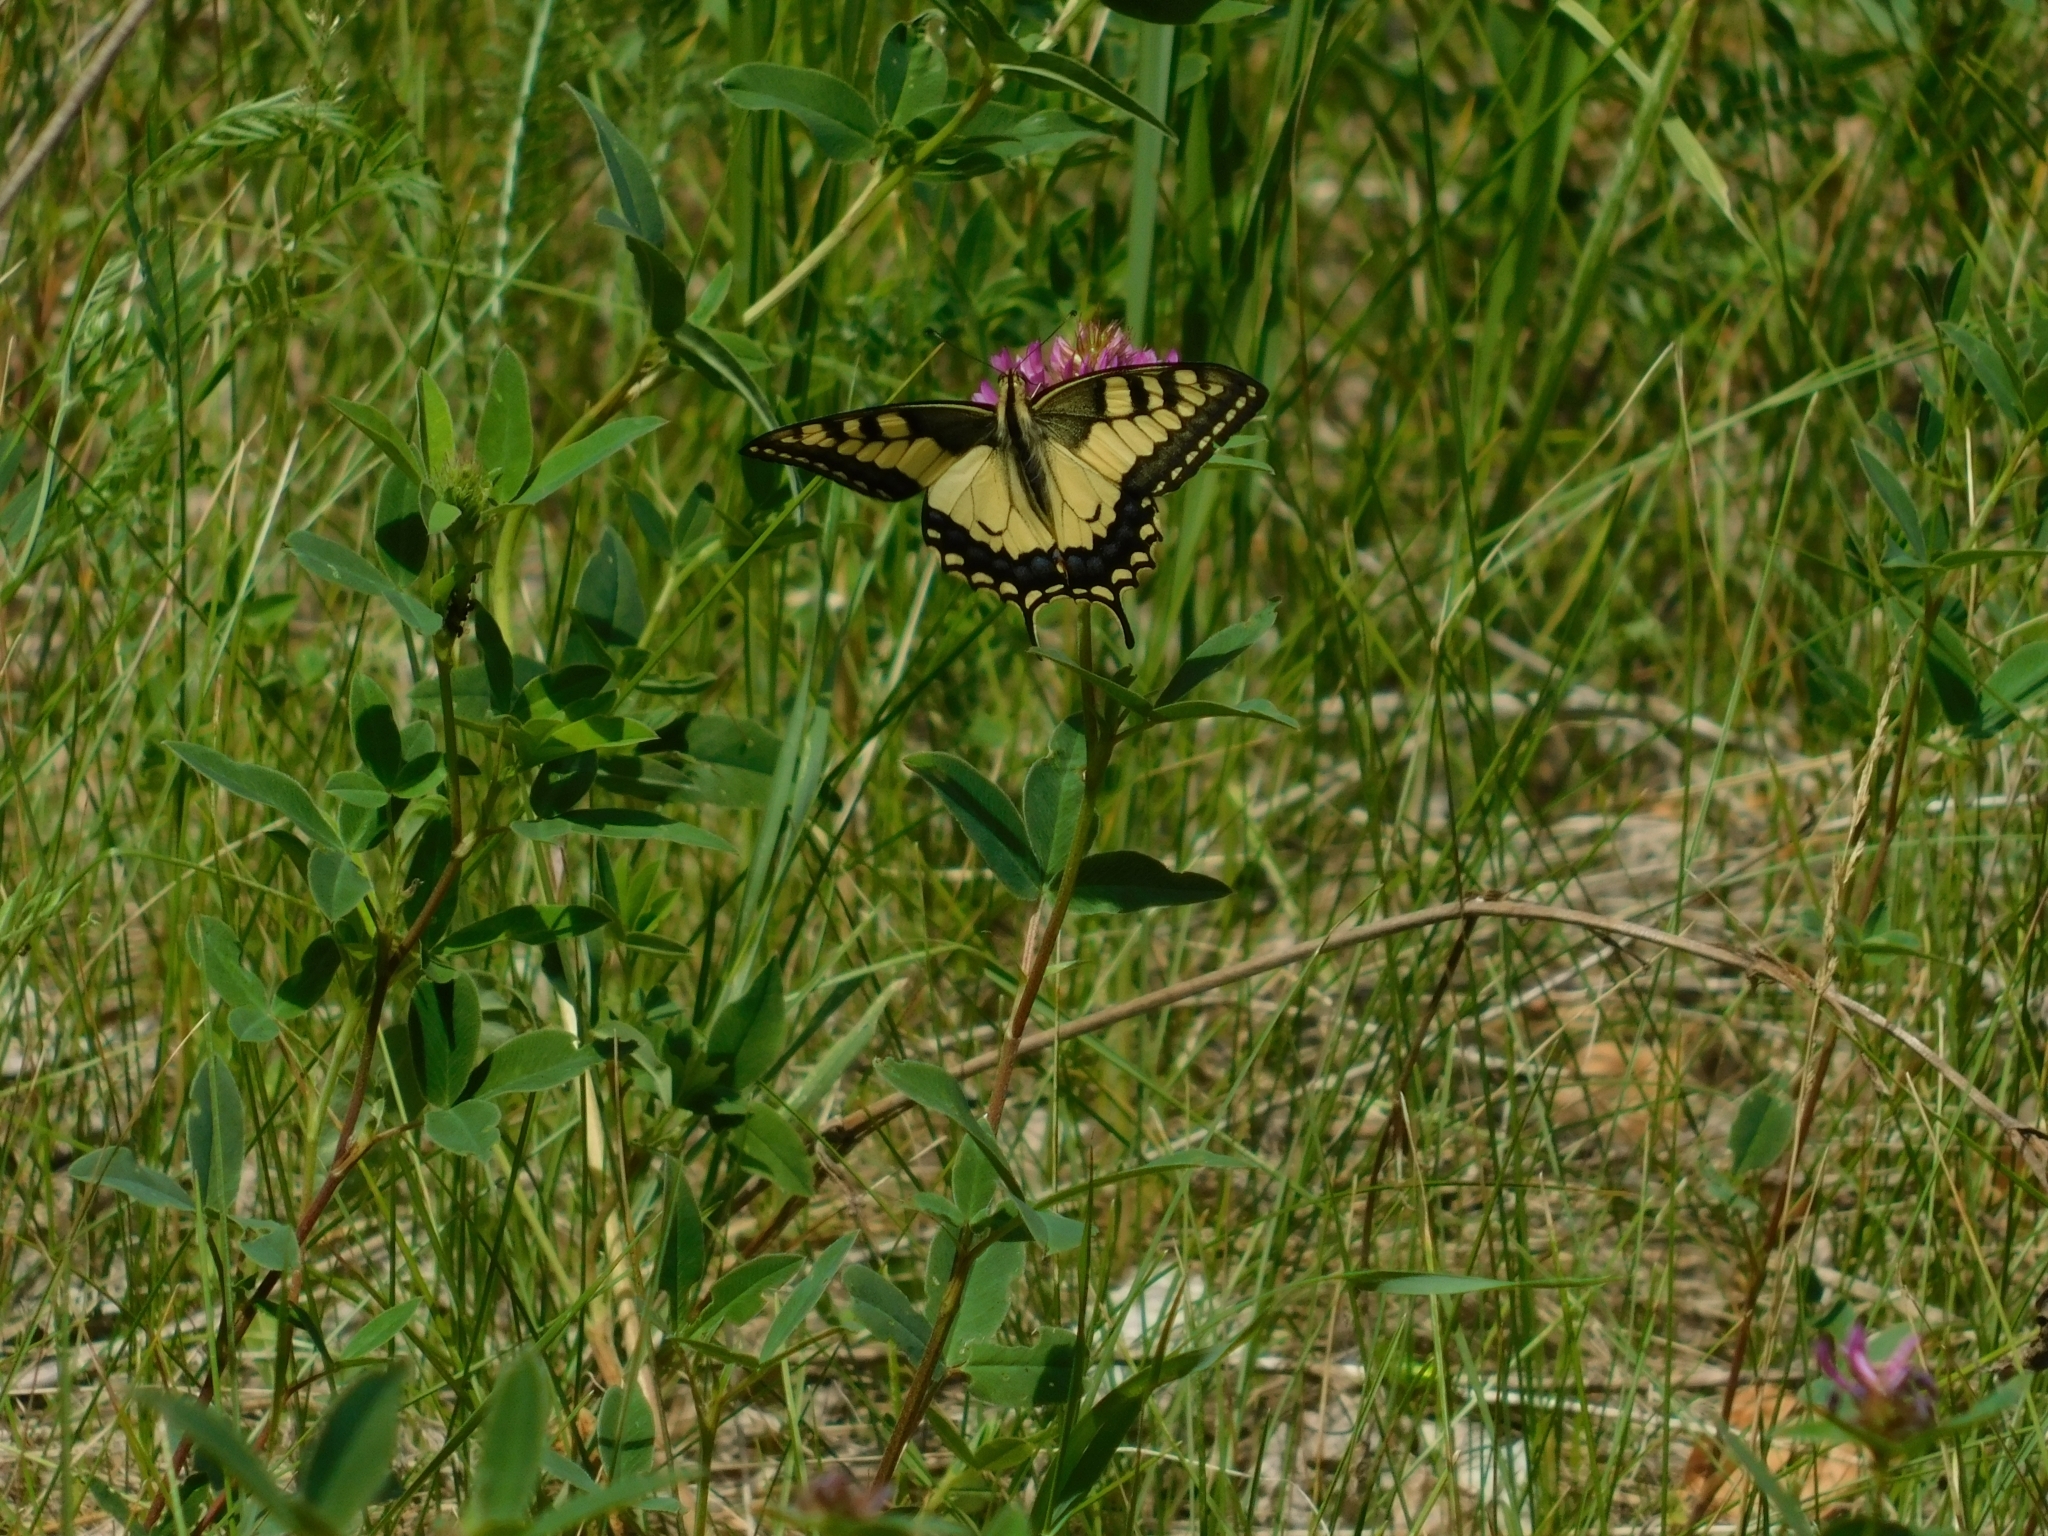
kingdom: Animalia
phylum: Arthropoda
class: Insecta
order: Lepidoptera
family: Papilionidae
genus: Papilio
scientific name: Papilio machaon
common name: Swallowtail
